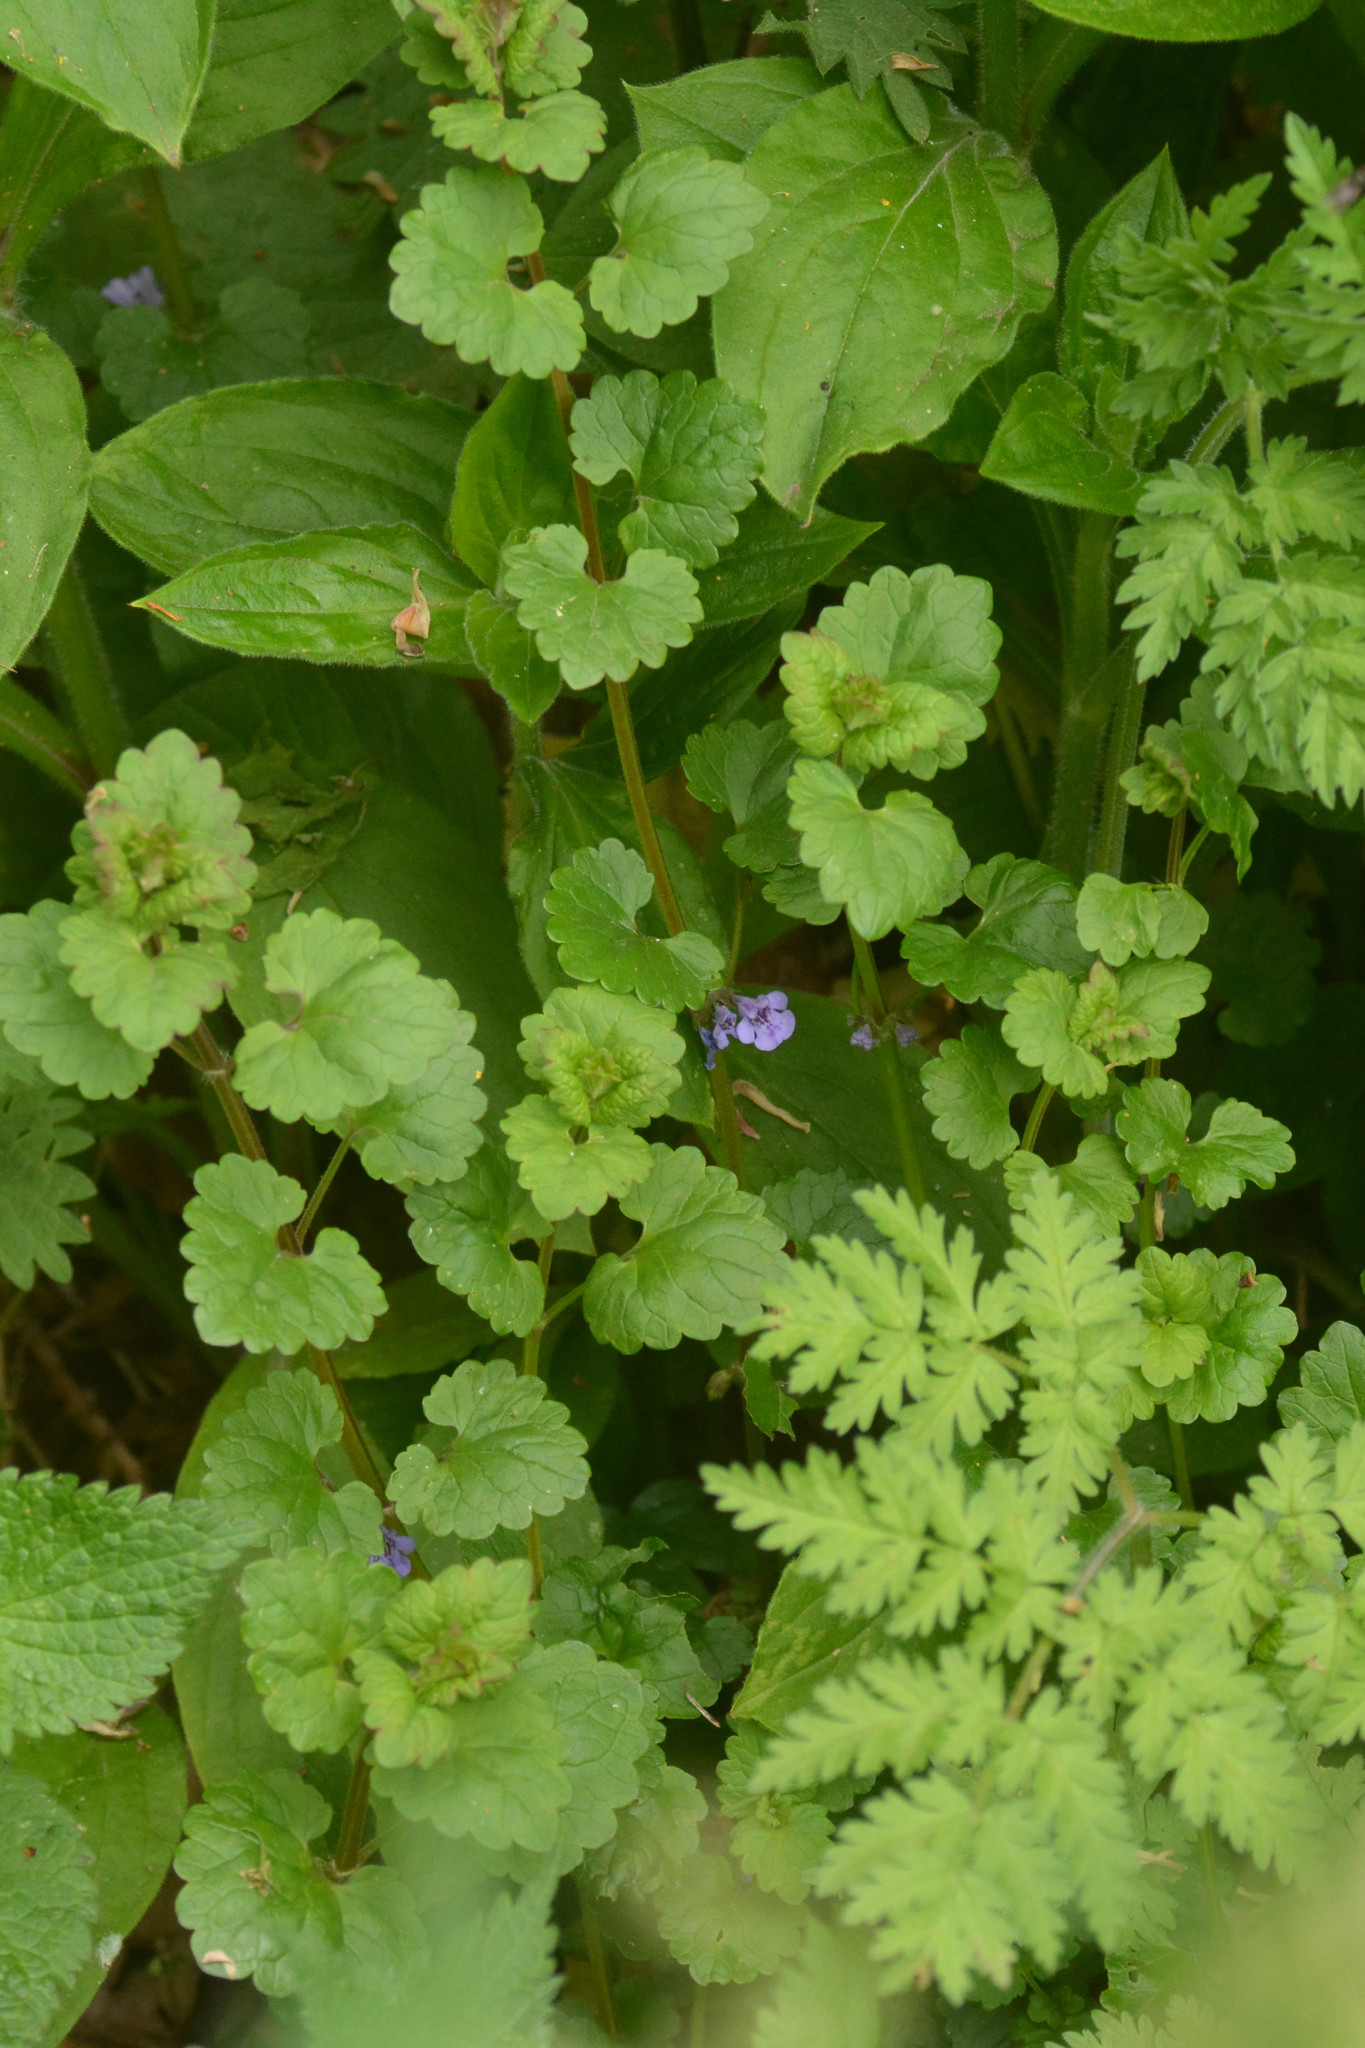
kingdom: Plantae
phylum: Tracheophyta
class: Magnoliopsida
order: Lamiales
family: Lamiaceae
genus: Glechoma
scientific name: Glechoma hederacea
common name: Ground ivy
